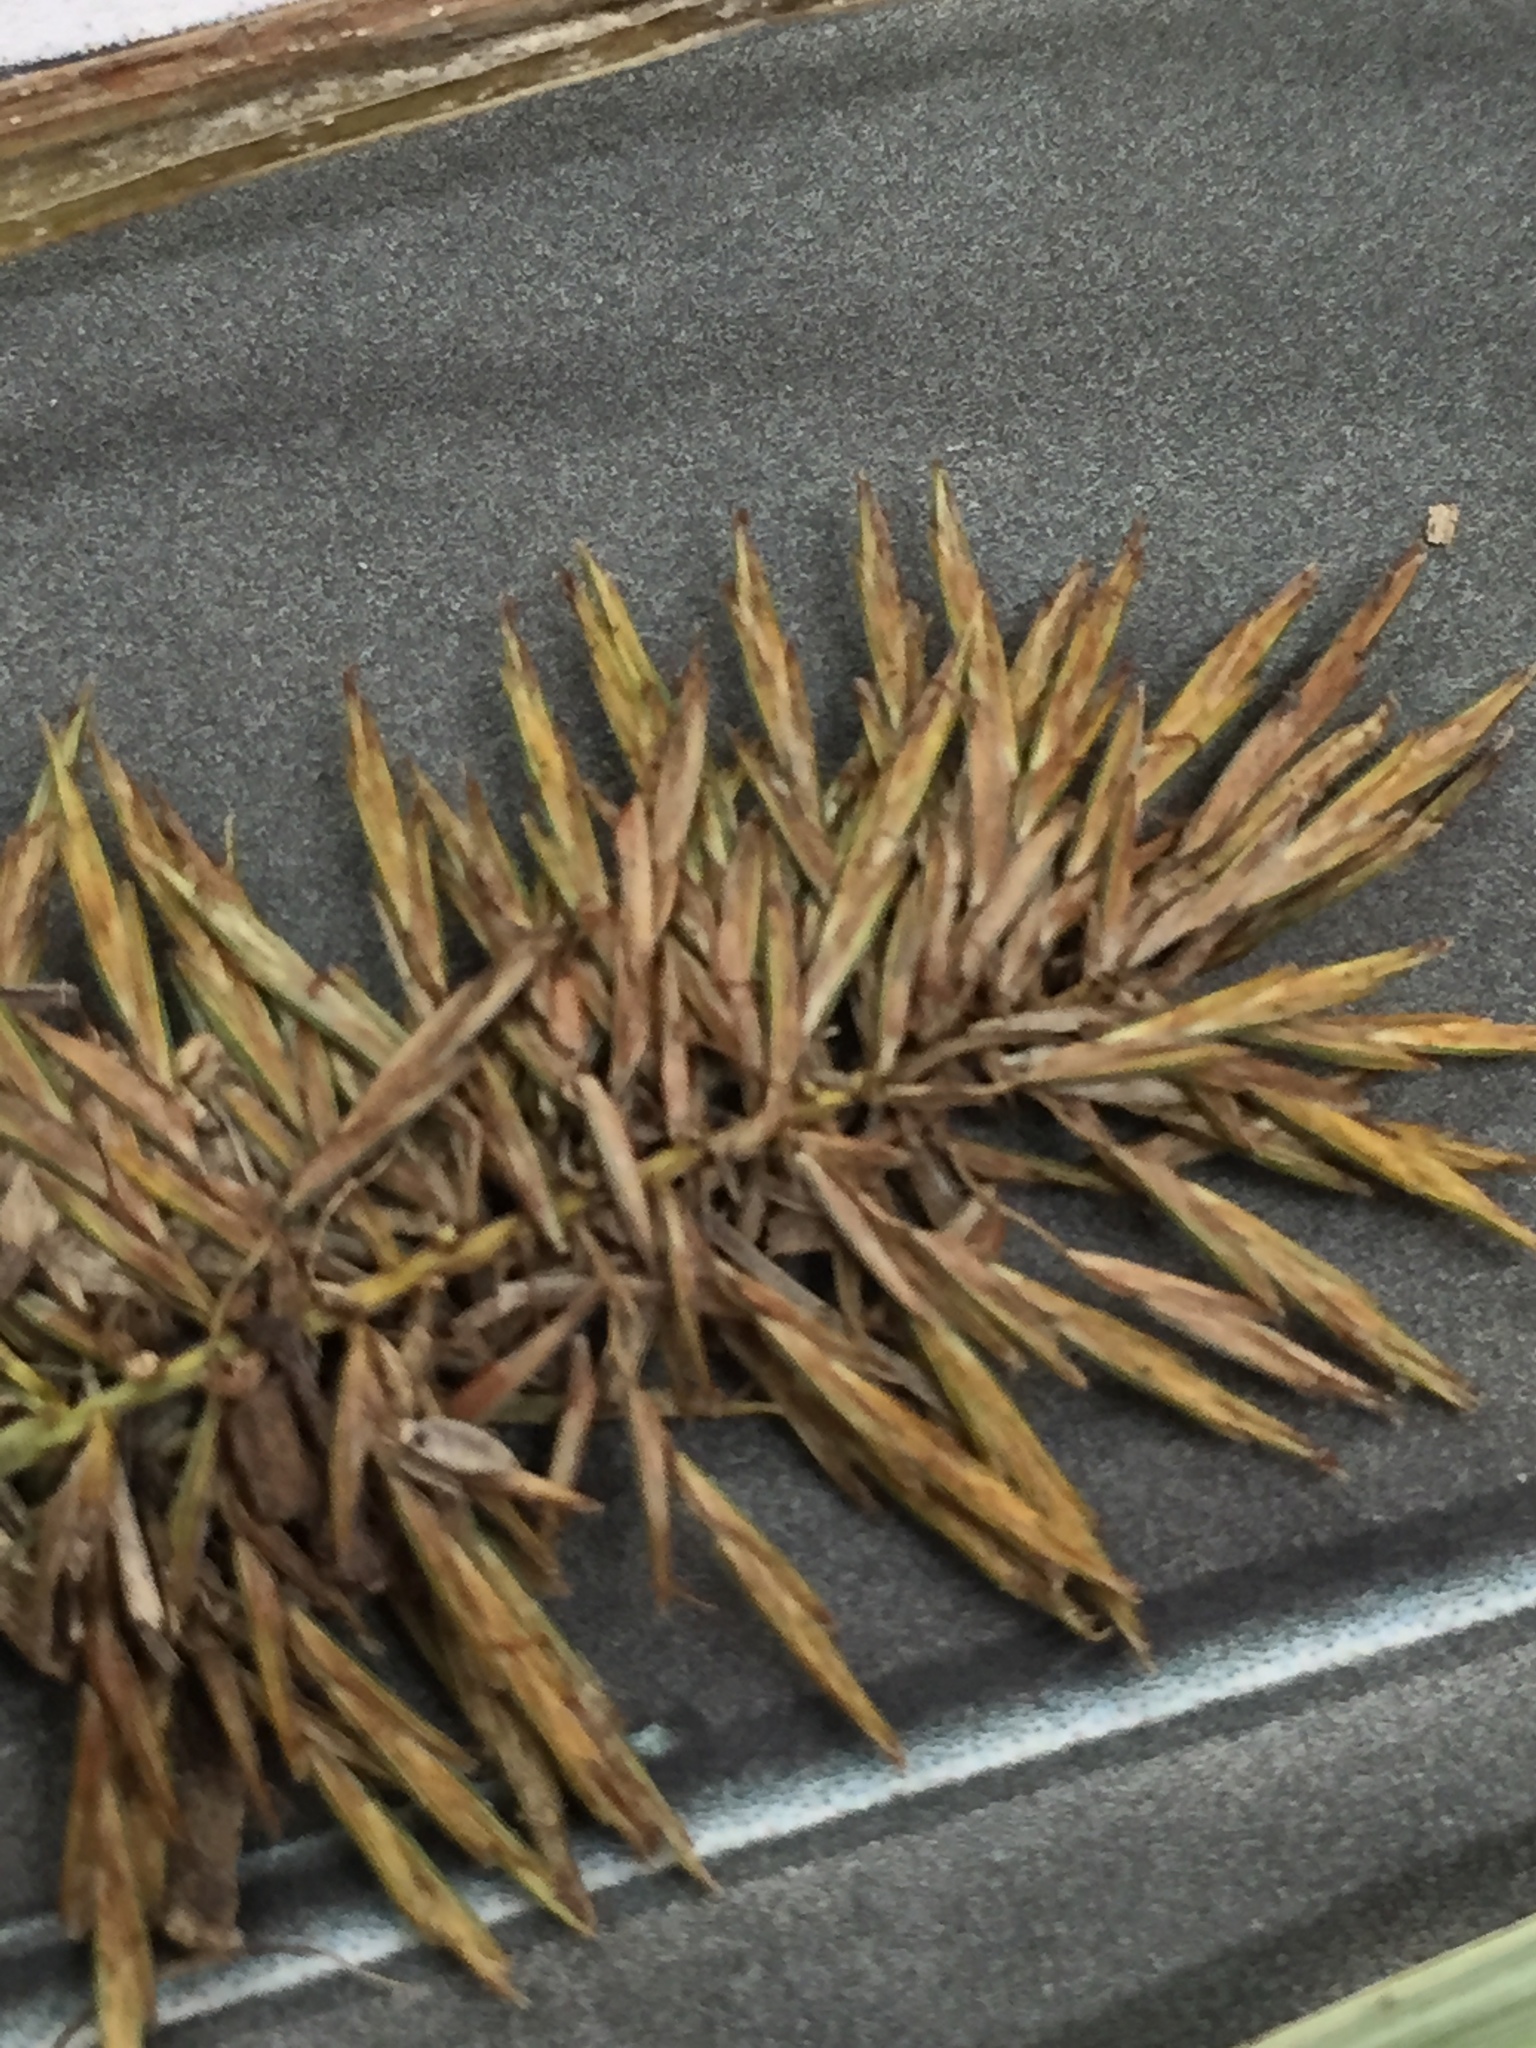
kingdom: Plantae
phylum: Tracheophyta
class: Liliopsida
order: Poales
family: Cyperaceae
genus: Cyperus
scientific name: Cyperus strigosus
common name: False nutsedge
